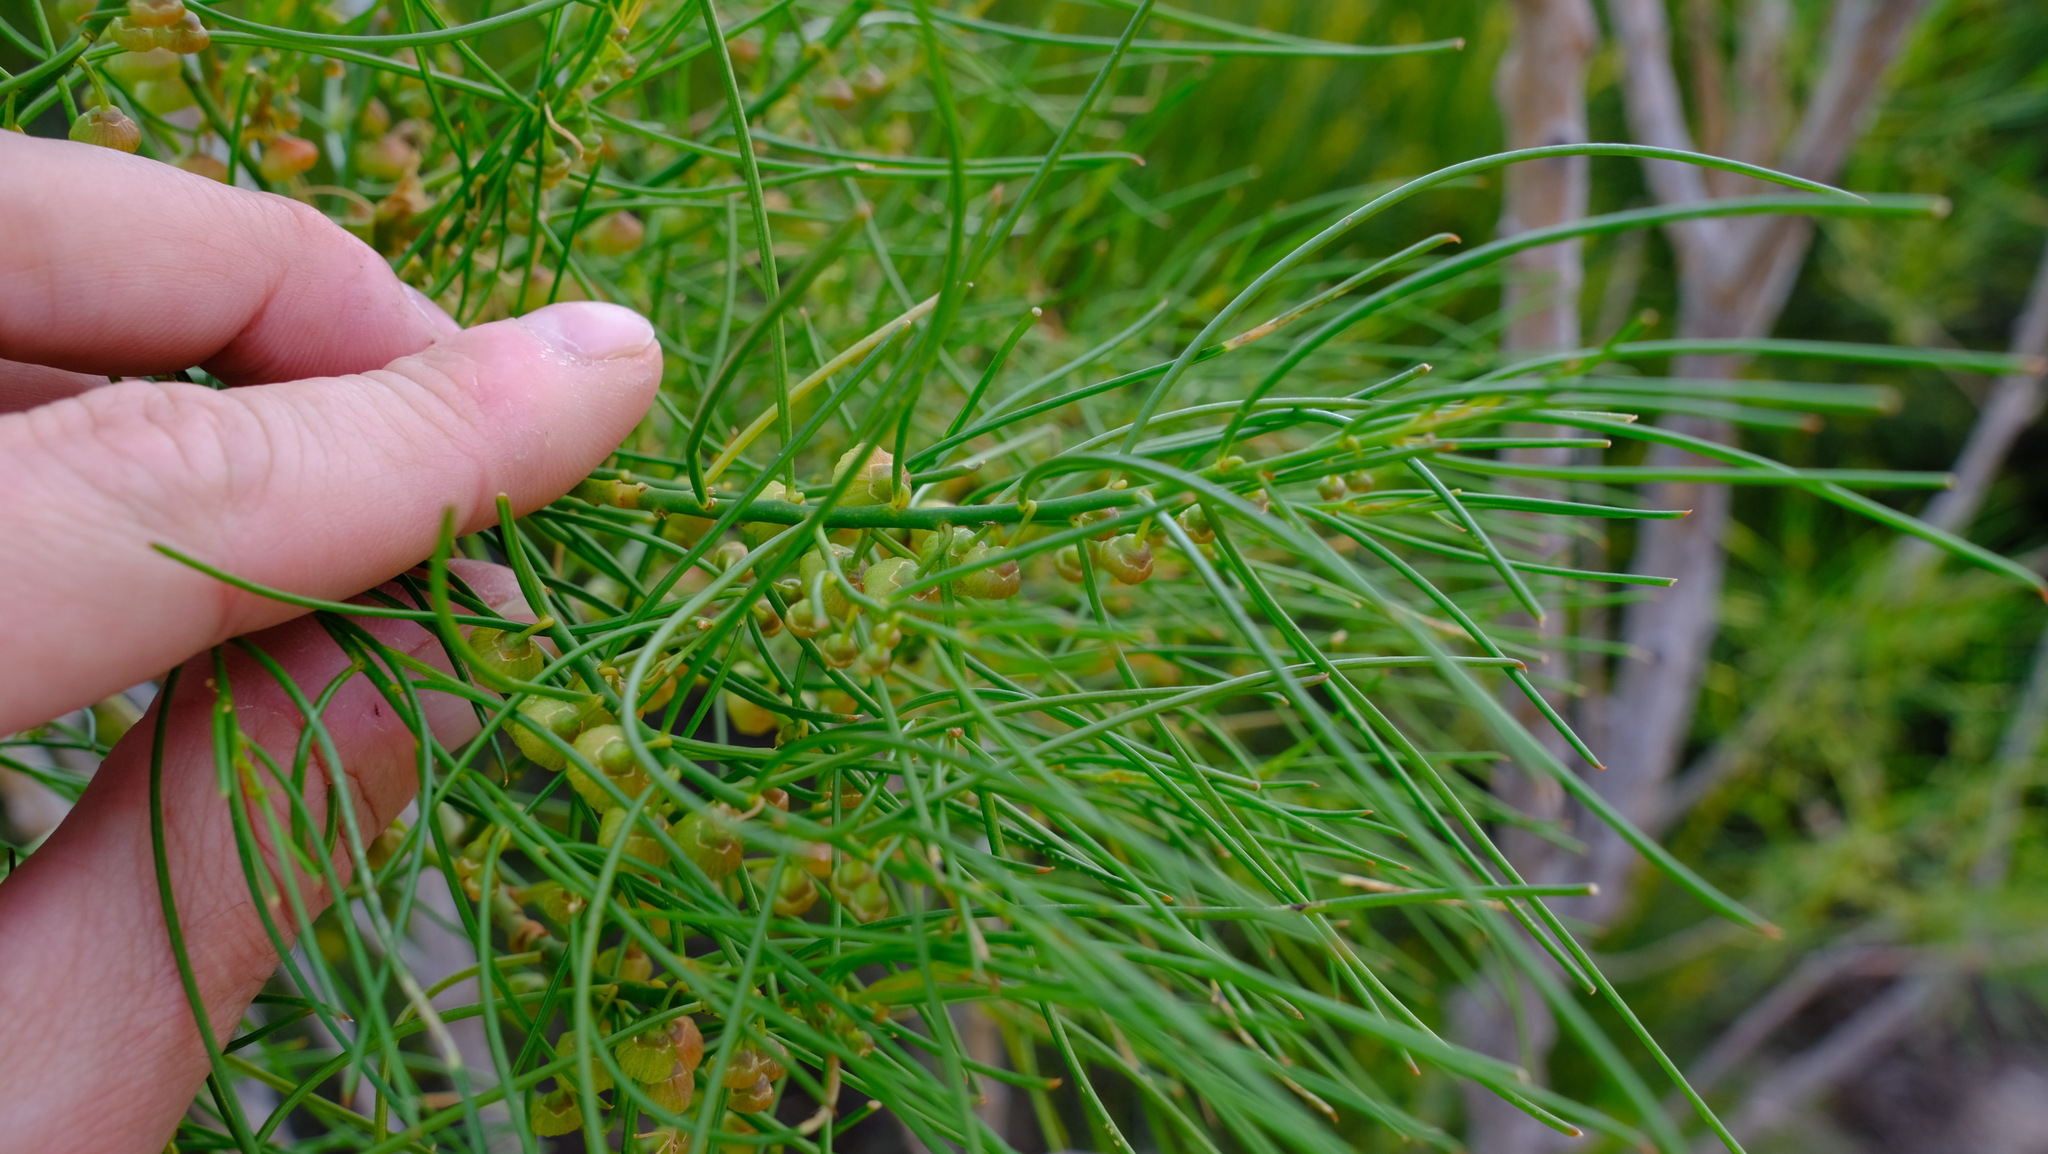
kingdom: Plantae
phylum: Tracheophyta
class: Magnoliopsida
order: Brassicales
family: Gyrostemonaceae
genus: Gyrostemon
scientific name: Gyrostemon ramulosus
